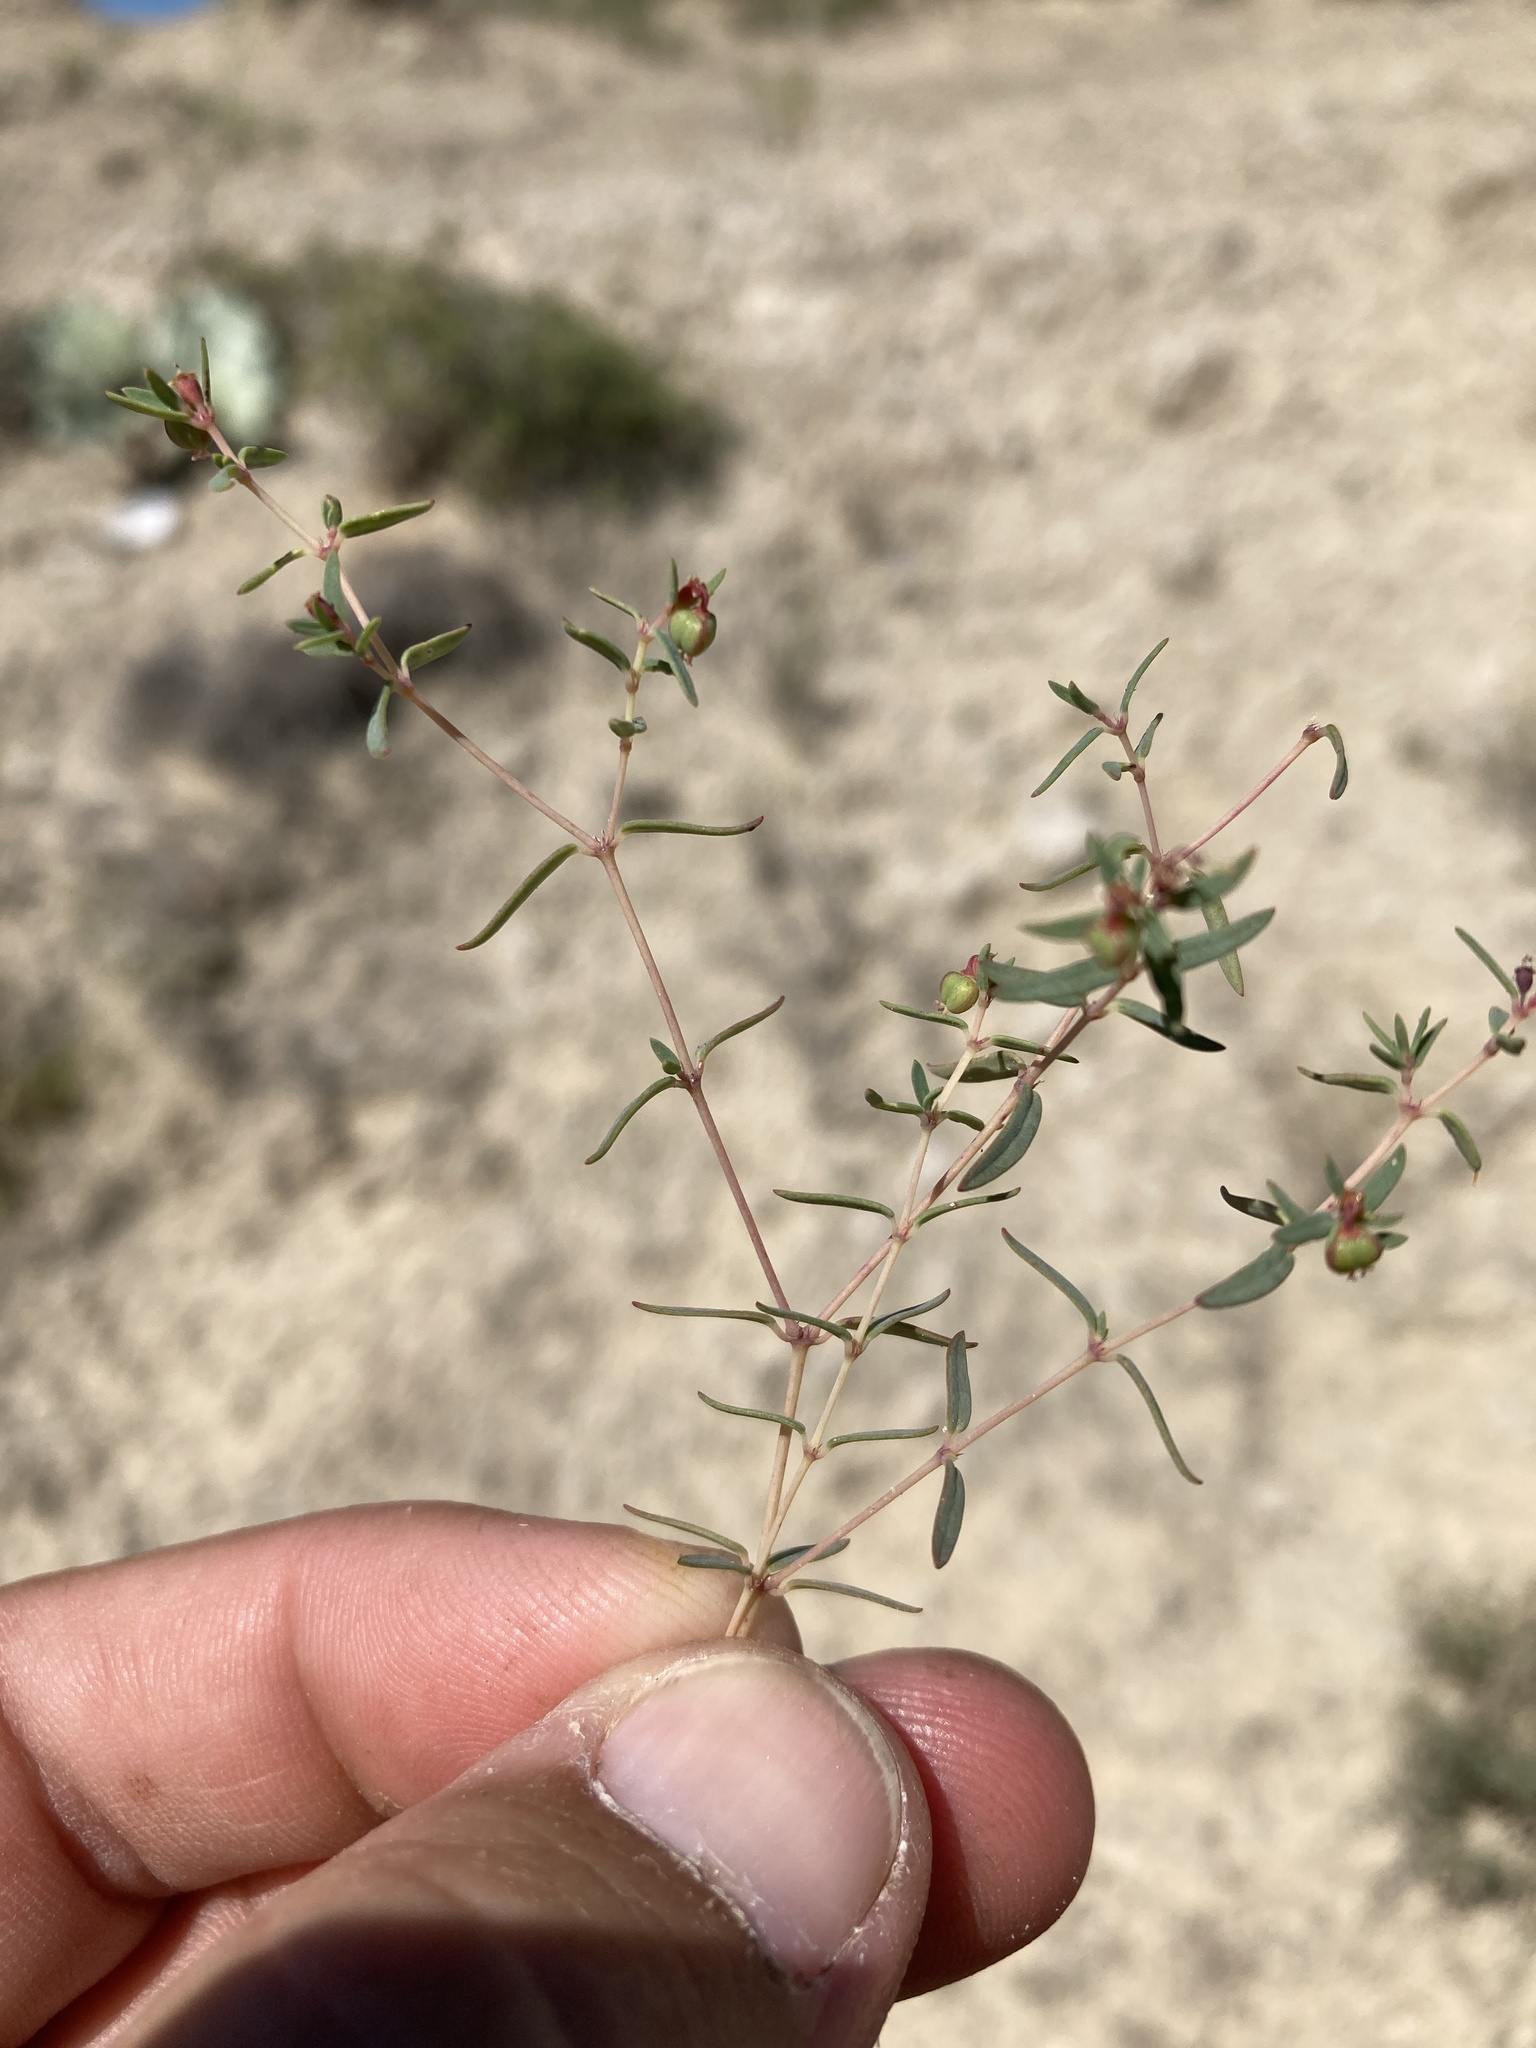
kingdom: Plantae
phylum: Tracheophyta
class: Magnoliopsida
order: Malpighiales
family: Euphorbiaceae
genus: Euphorbia
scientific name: Euphorbia chaetocalyx
